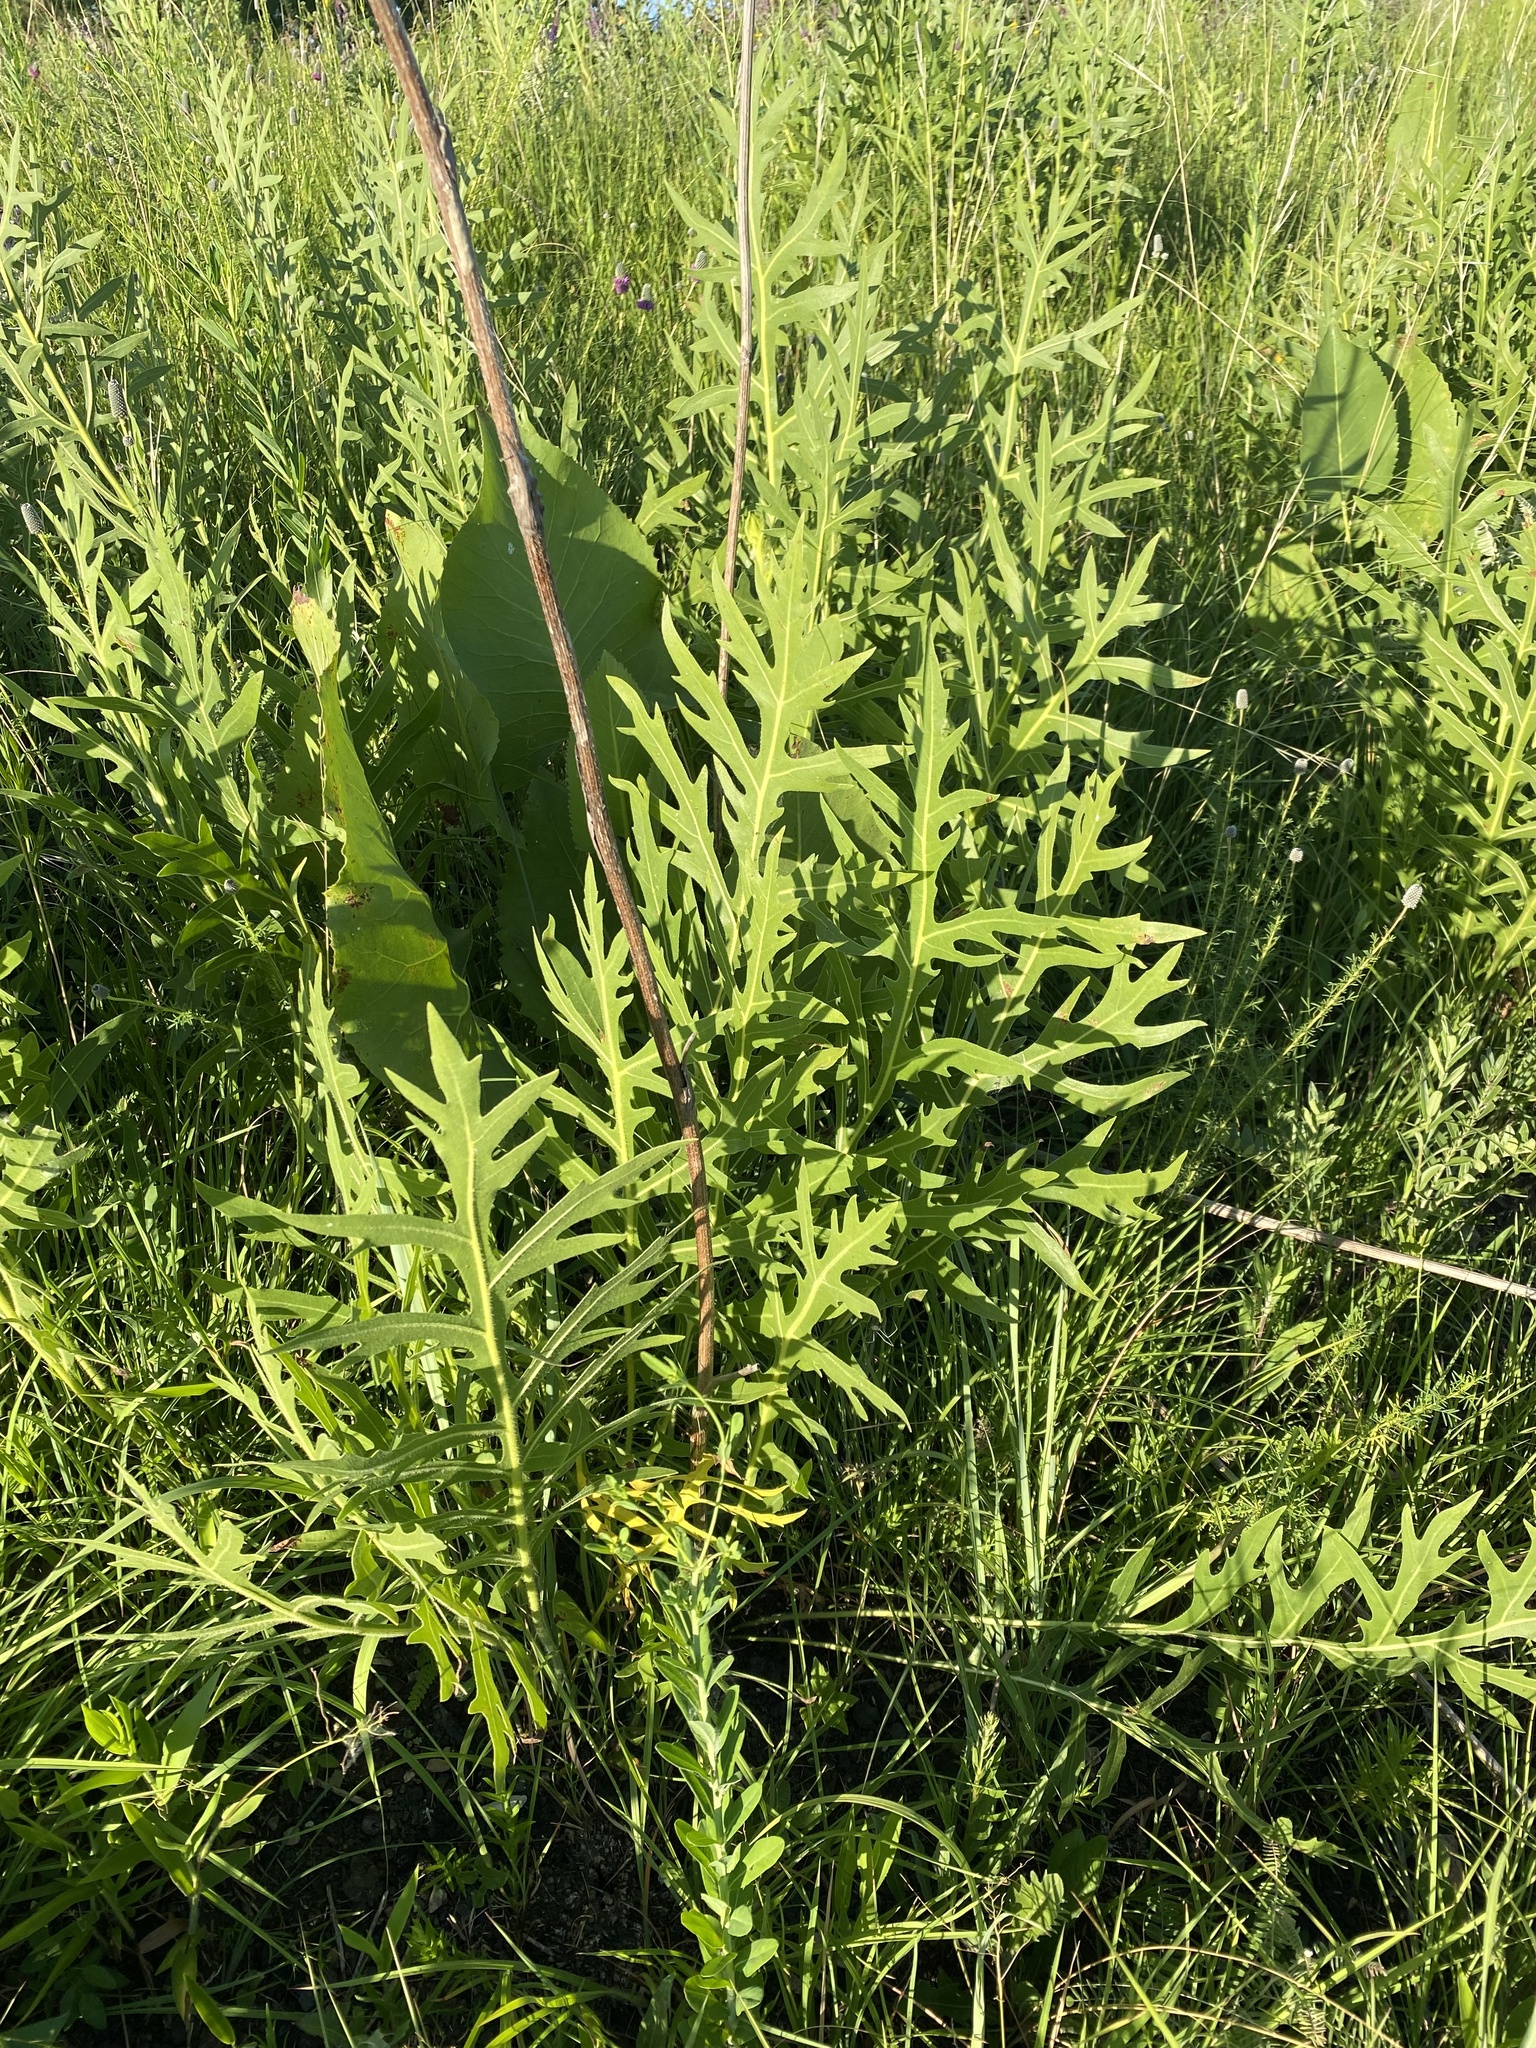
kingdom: Plantae
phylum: Tracheophyta
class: Magnoliopsida
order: Asterales
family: Asteraceae
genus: Silphium
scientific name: Silphium laciniatum
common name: Polarplant
